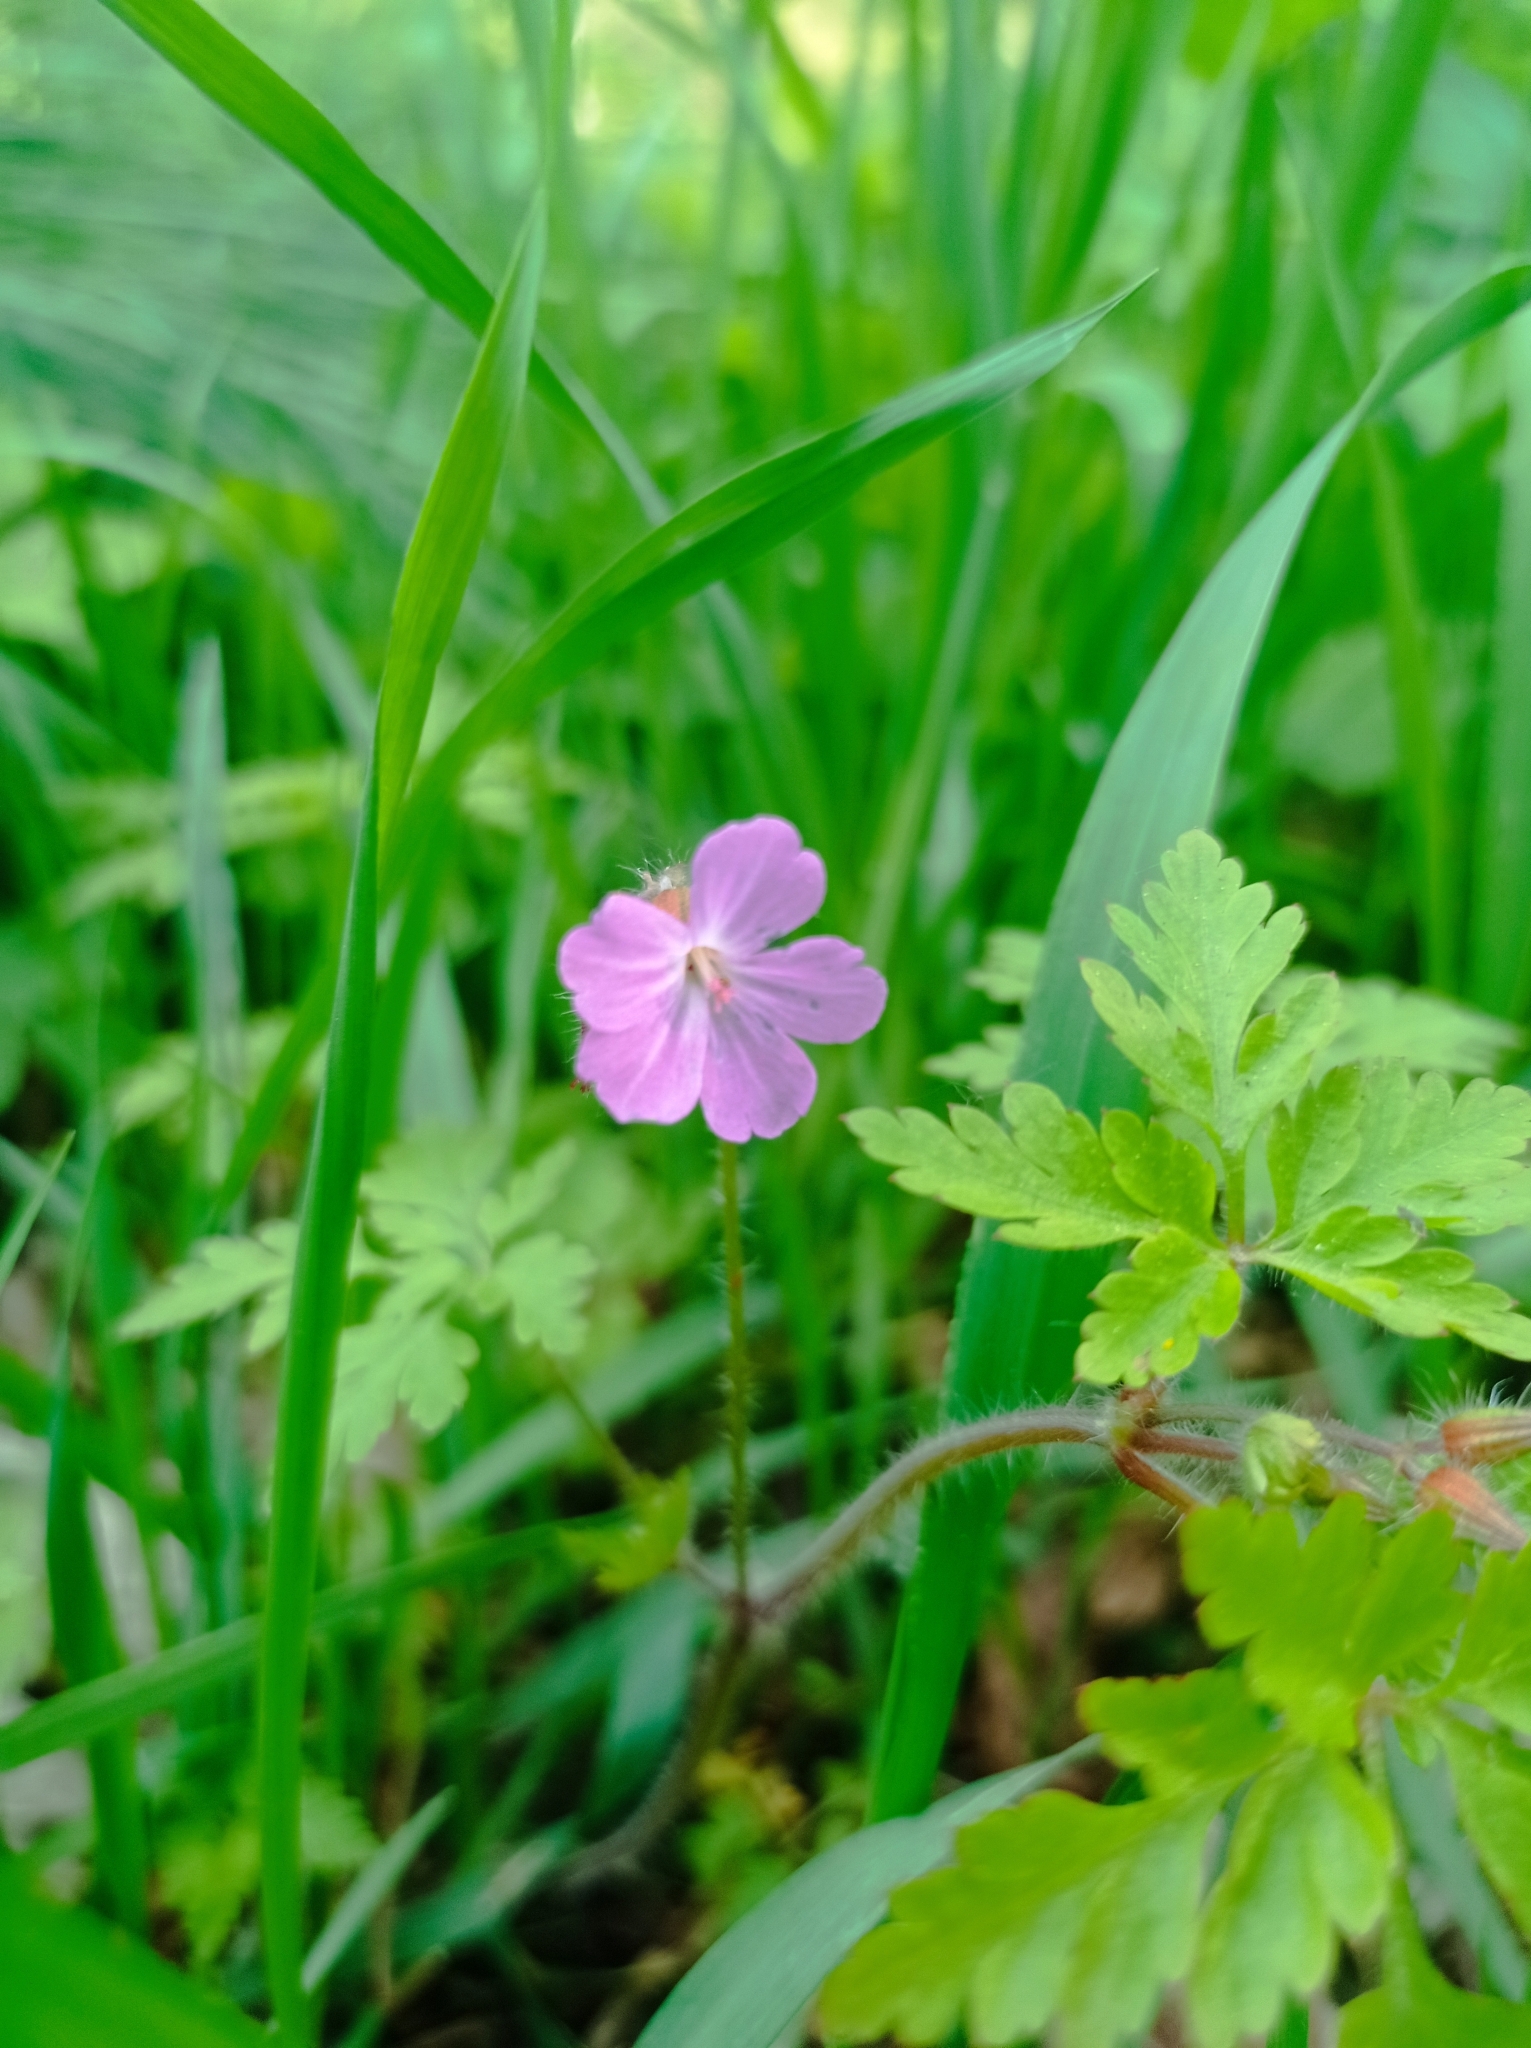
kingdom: Plantae
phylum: Tracheophyta
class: Magnoliopsida
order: Geraniales
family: Geraniaceae
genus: Geranium
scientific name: Geranium robertianum
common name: Herb-robert
